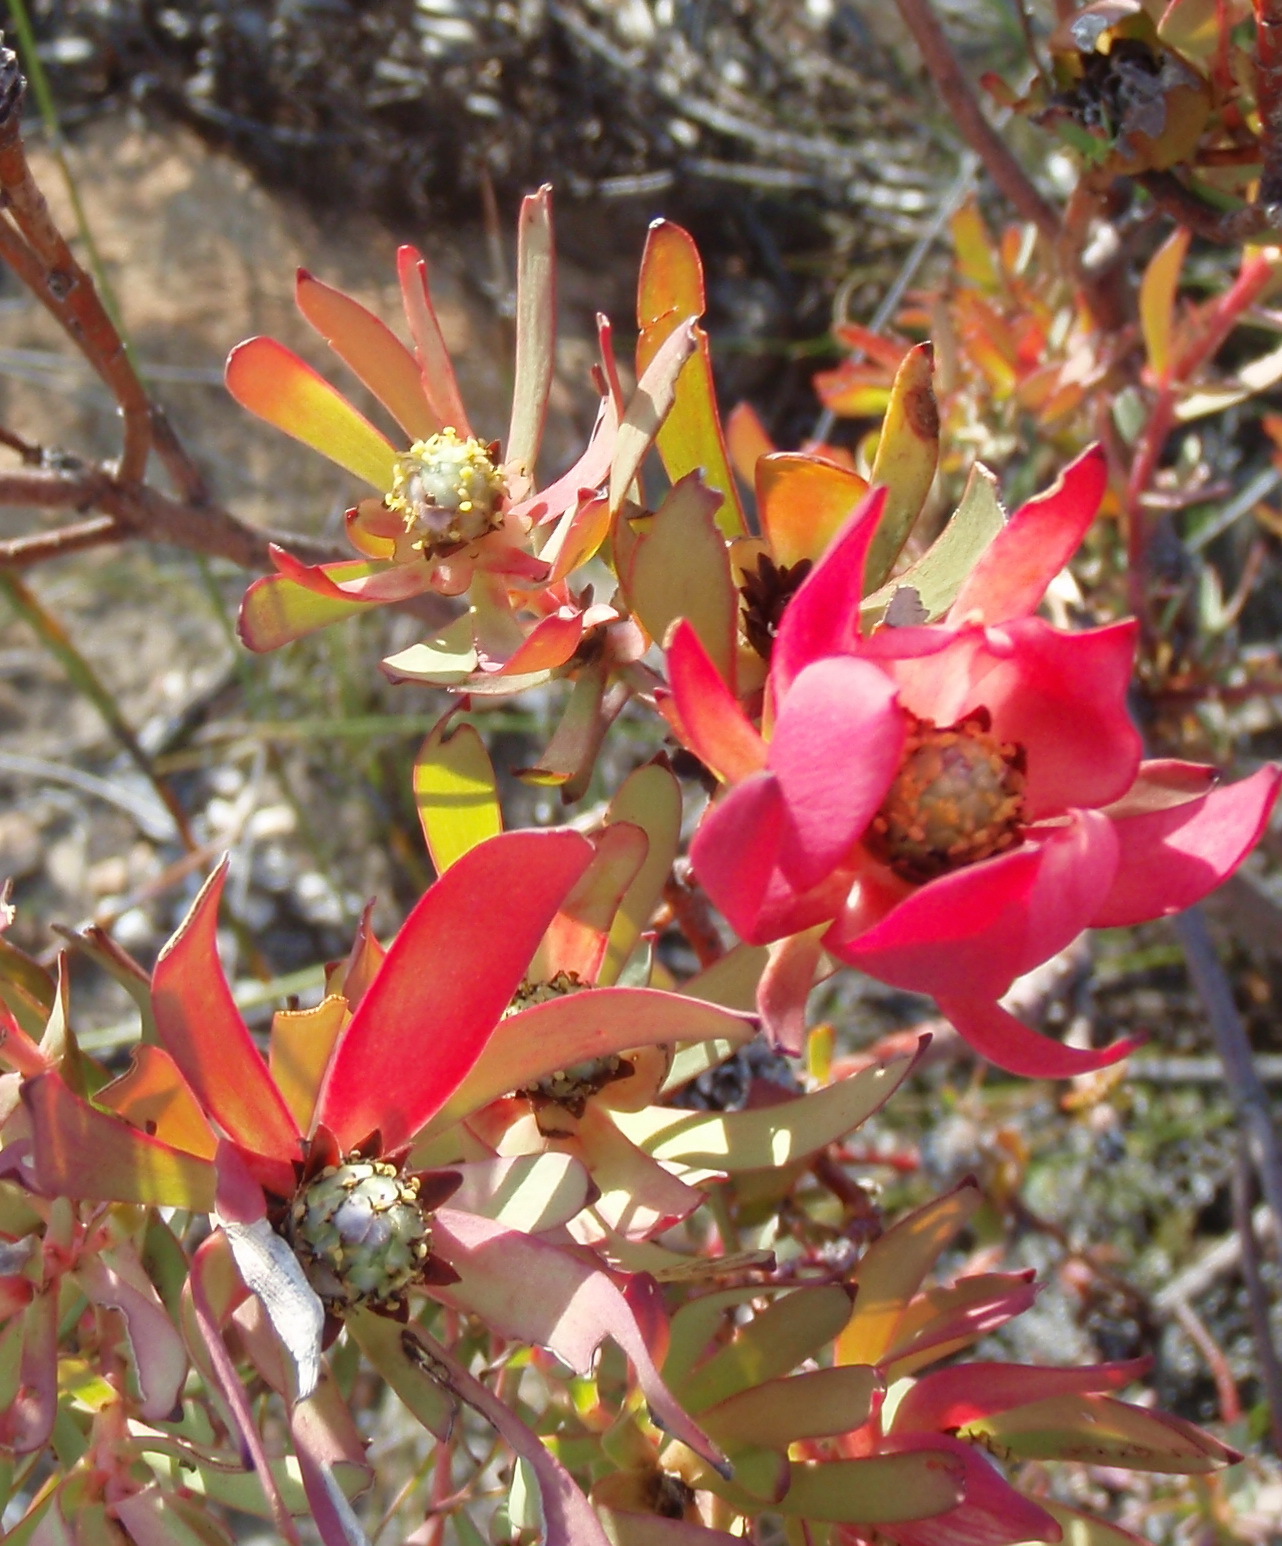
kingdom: Plantae
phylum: Tracheophyta
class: Magnoliopsida
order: Proteales
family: Proteaceae
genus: Leucadendron
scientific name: Leucadendron salignum
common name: Common sunshine conebush
